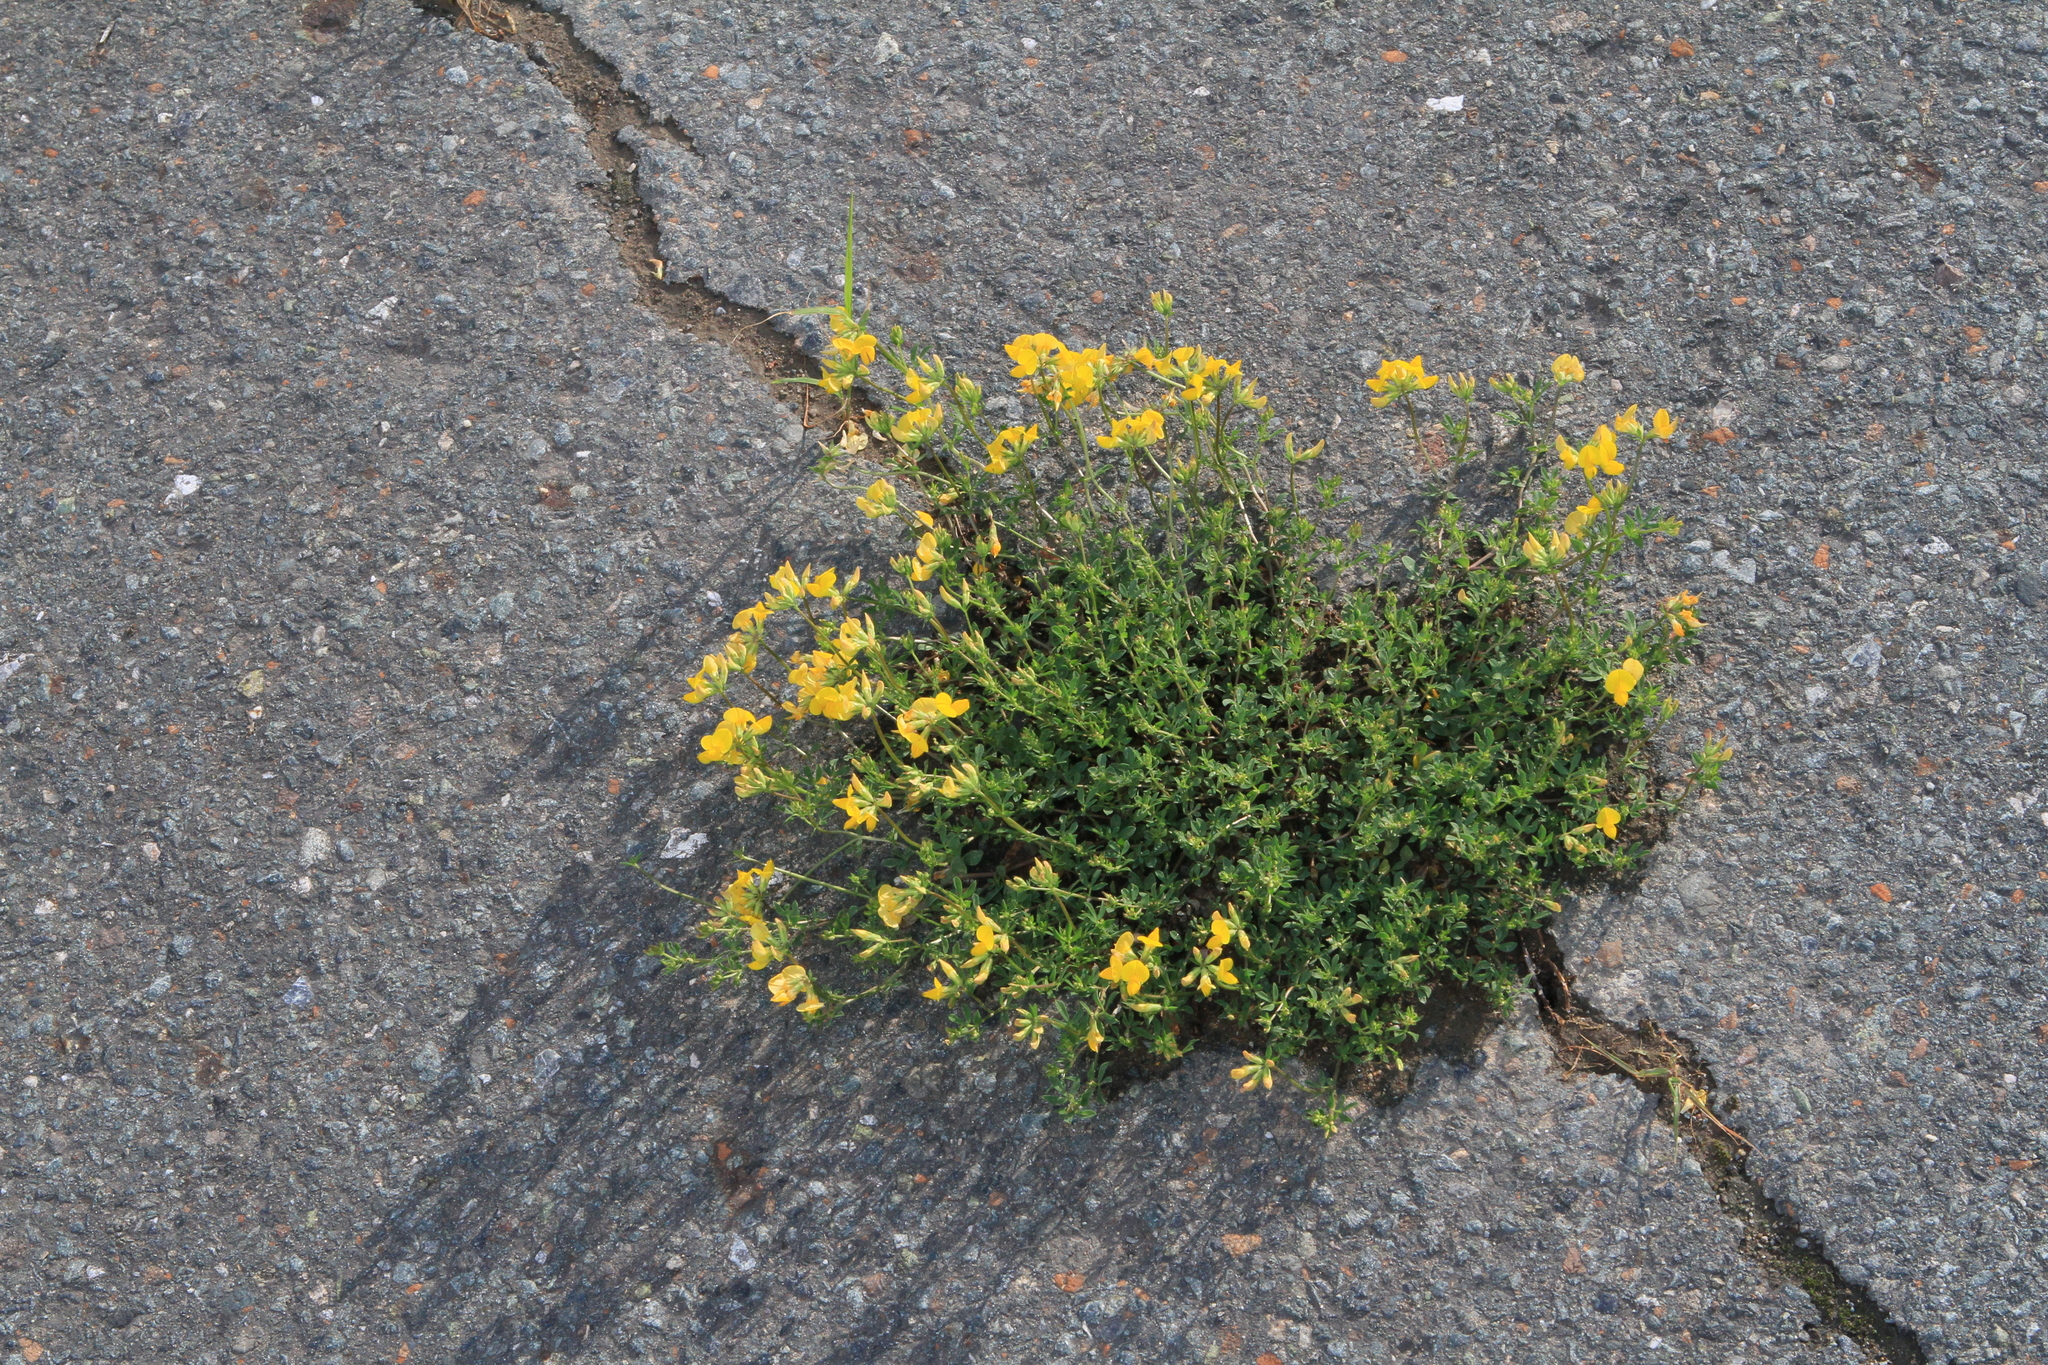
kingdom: Plantae
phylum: Tracheophyta
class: Magnoliopsida
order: Fabales
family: Fabaceae
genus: Lotus
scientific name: Lotus corniculatus
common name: Common bird's-foot-trefoil
